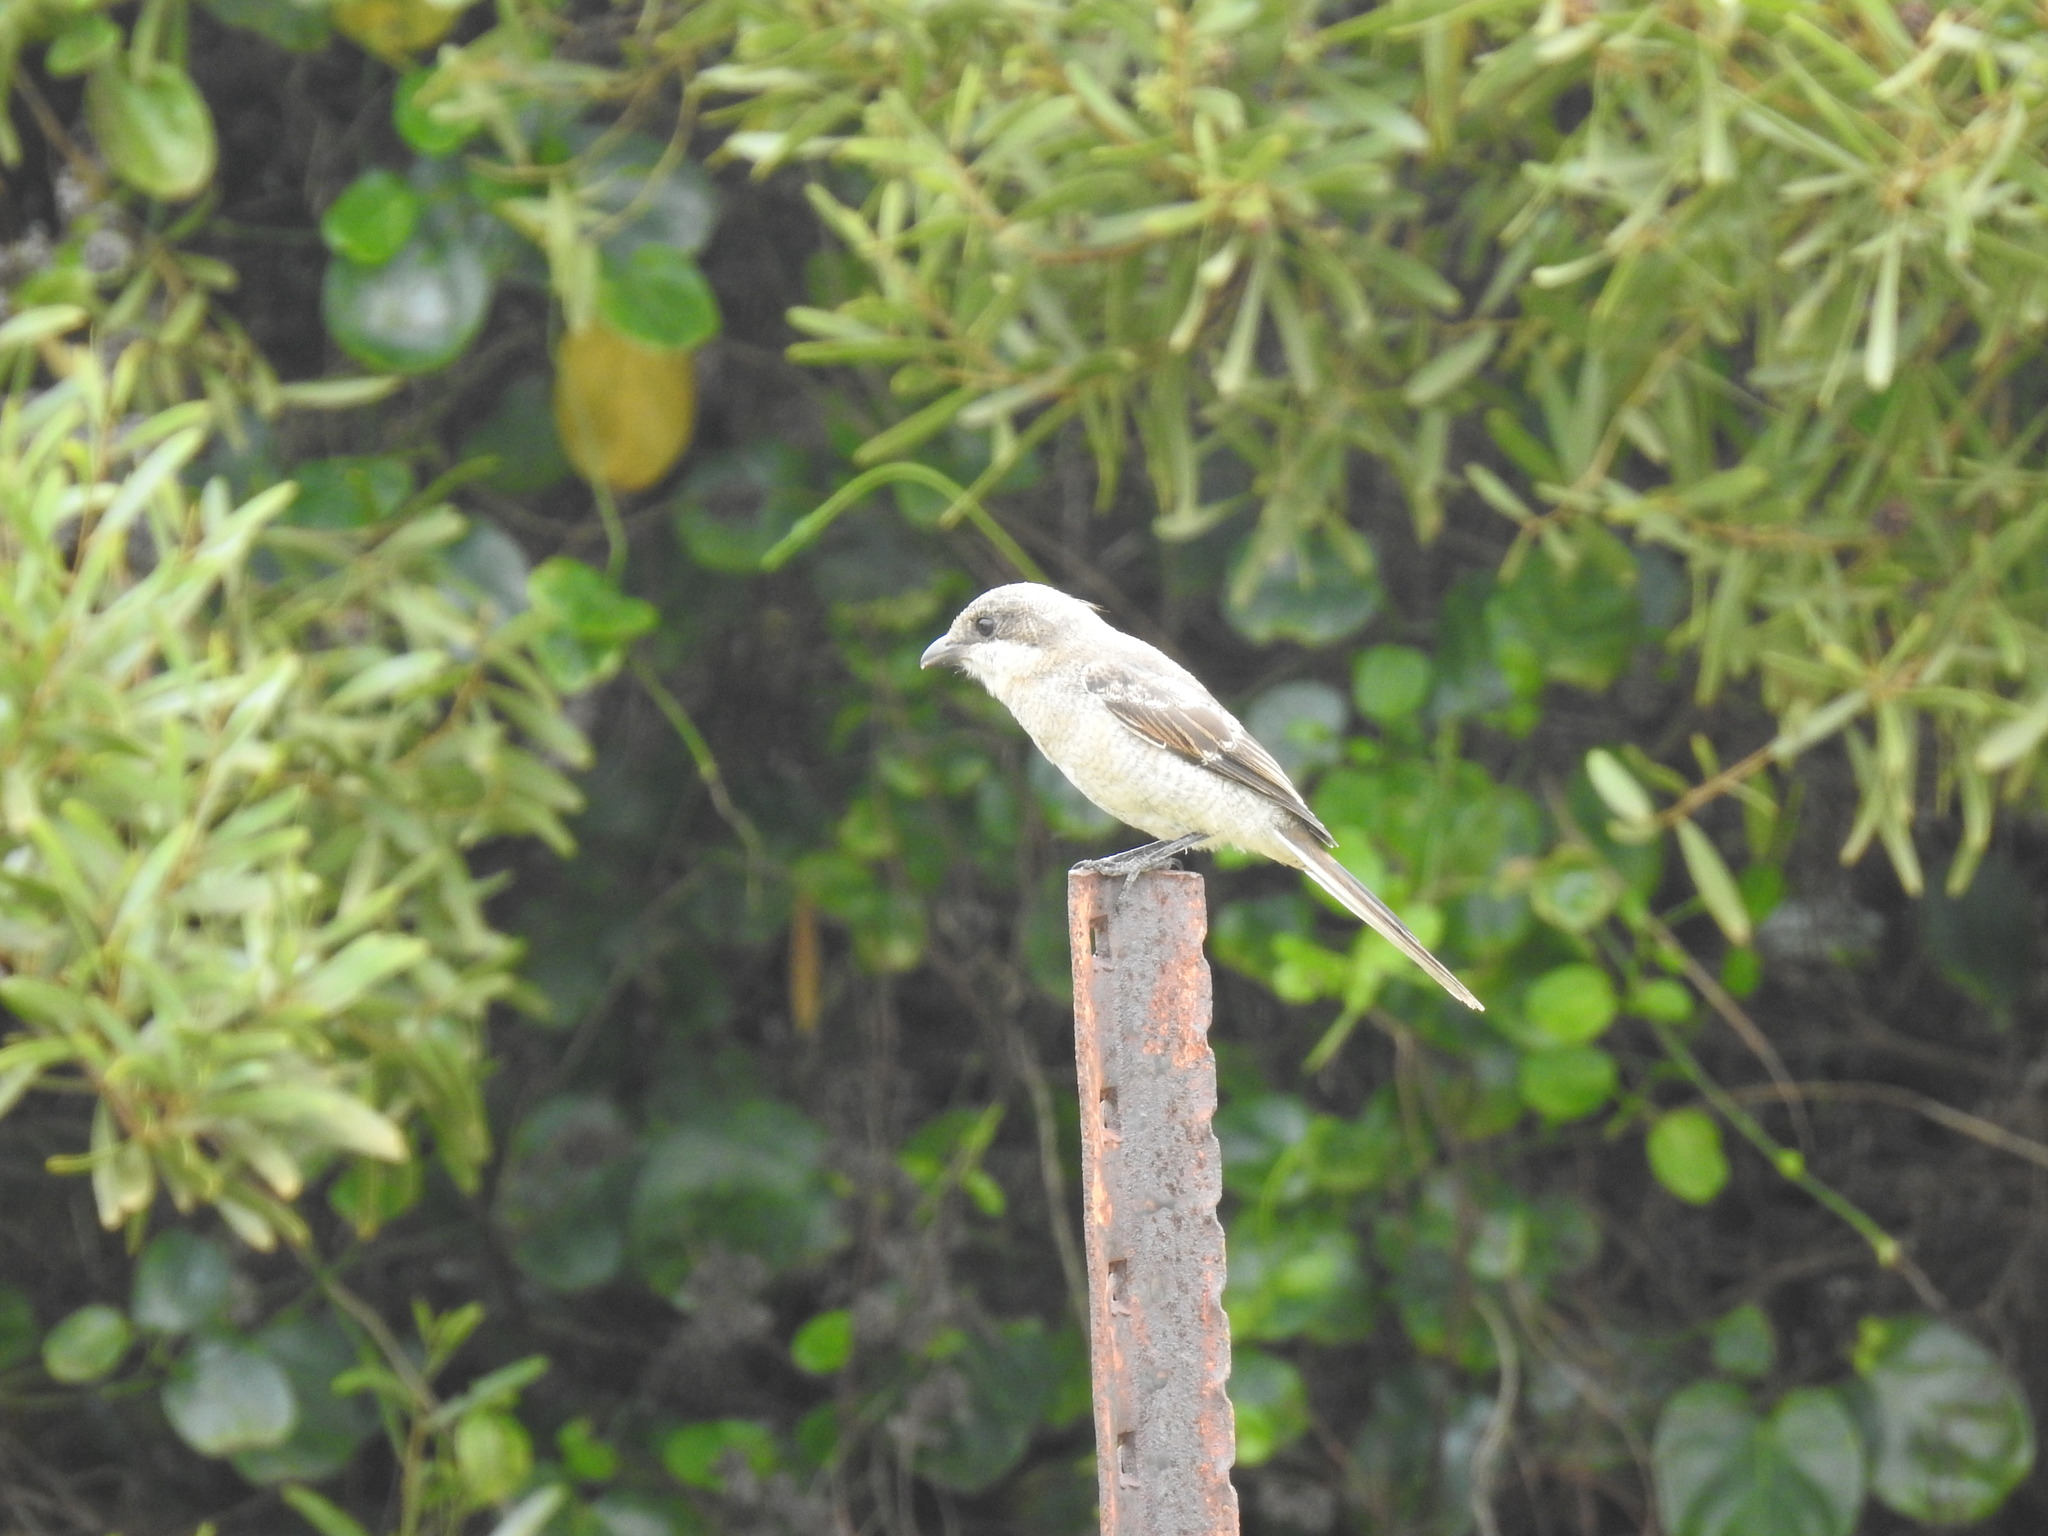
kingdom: Animalia
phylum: Chordata
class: Aves
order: Passeriformes
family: Laniidae
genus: Lanius
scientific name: Lanius collaris
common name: Southern fiscal
